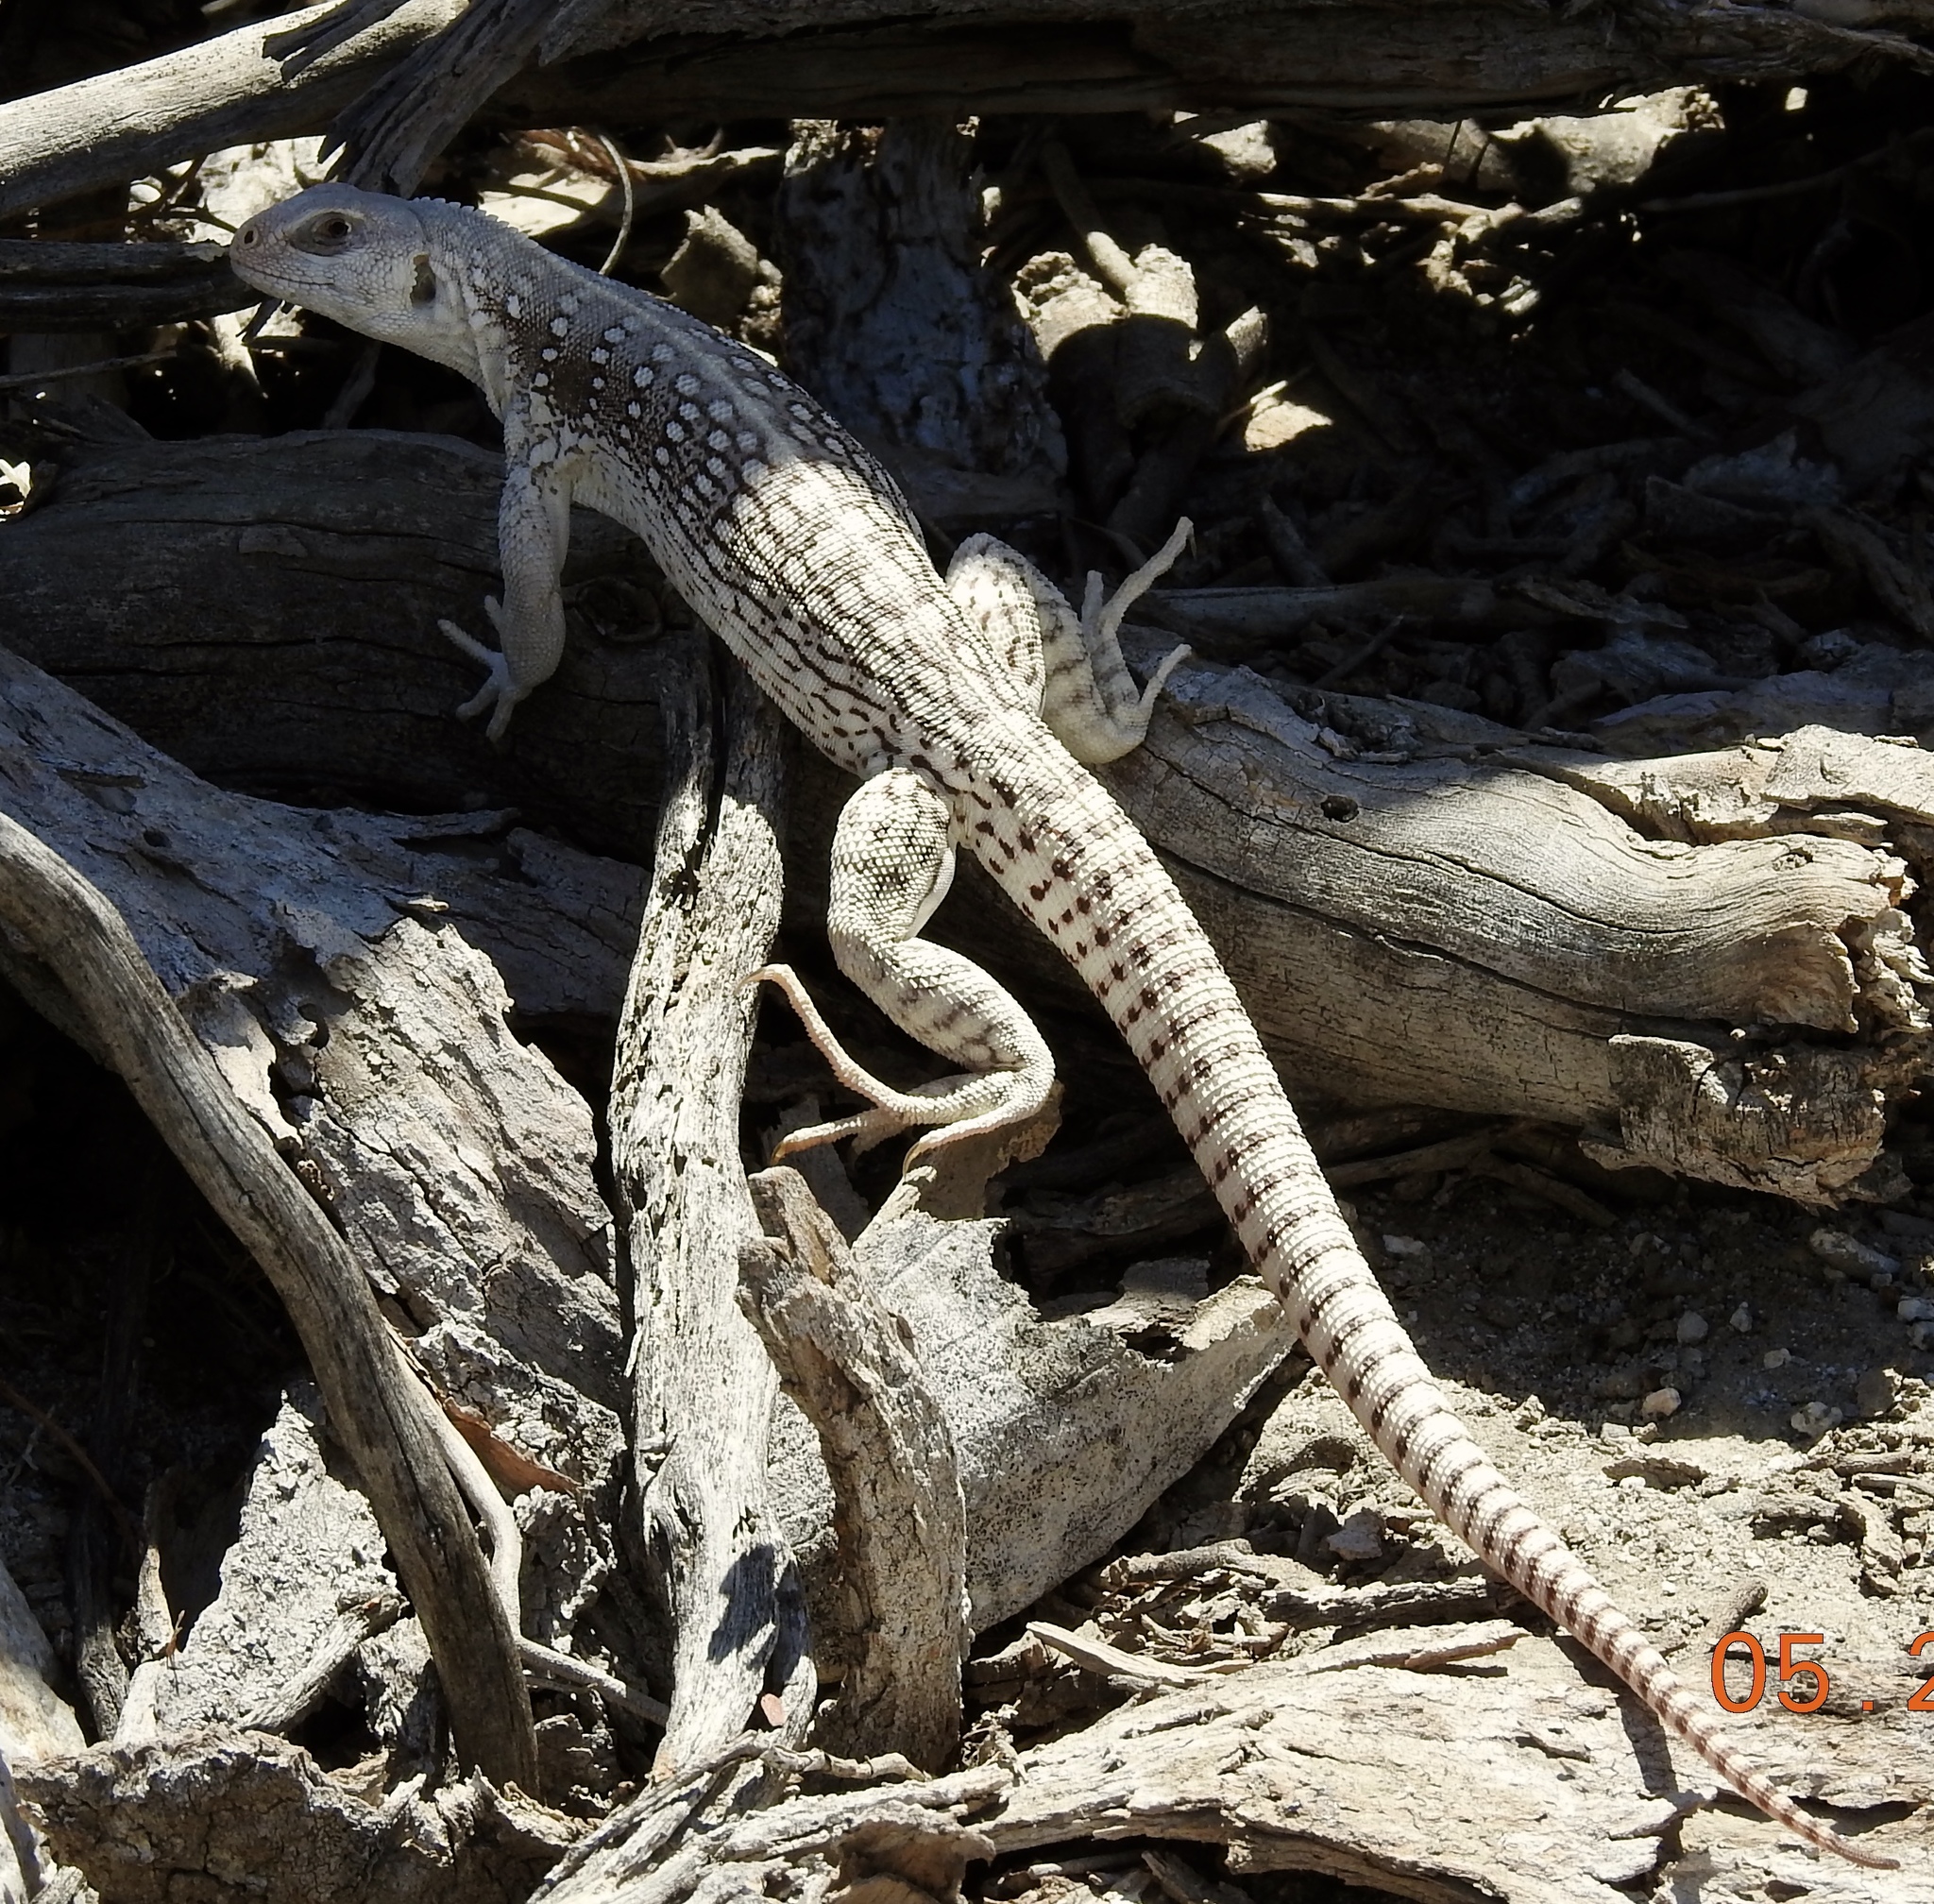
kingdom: Animalia
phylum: Chordata
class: Squamata
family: Iguanidae
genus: Dipsosaurus
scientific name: Dipsosaurus dorsalis
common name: Desert iguana
